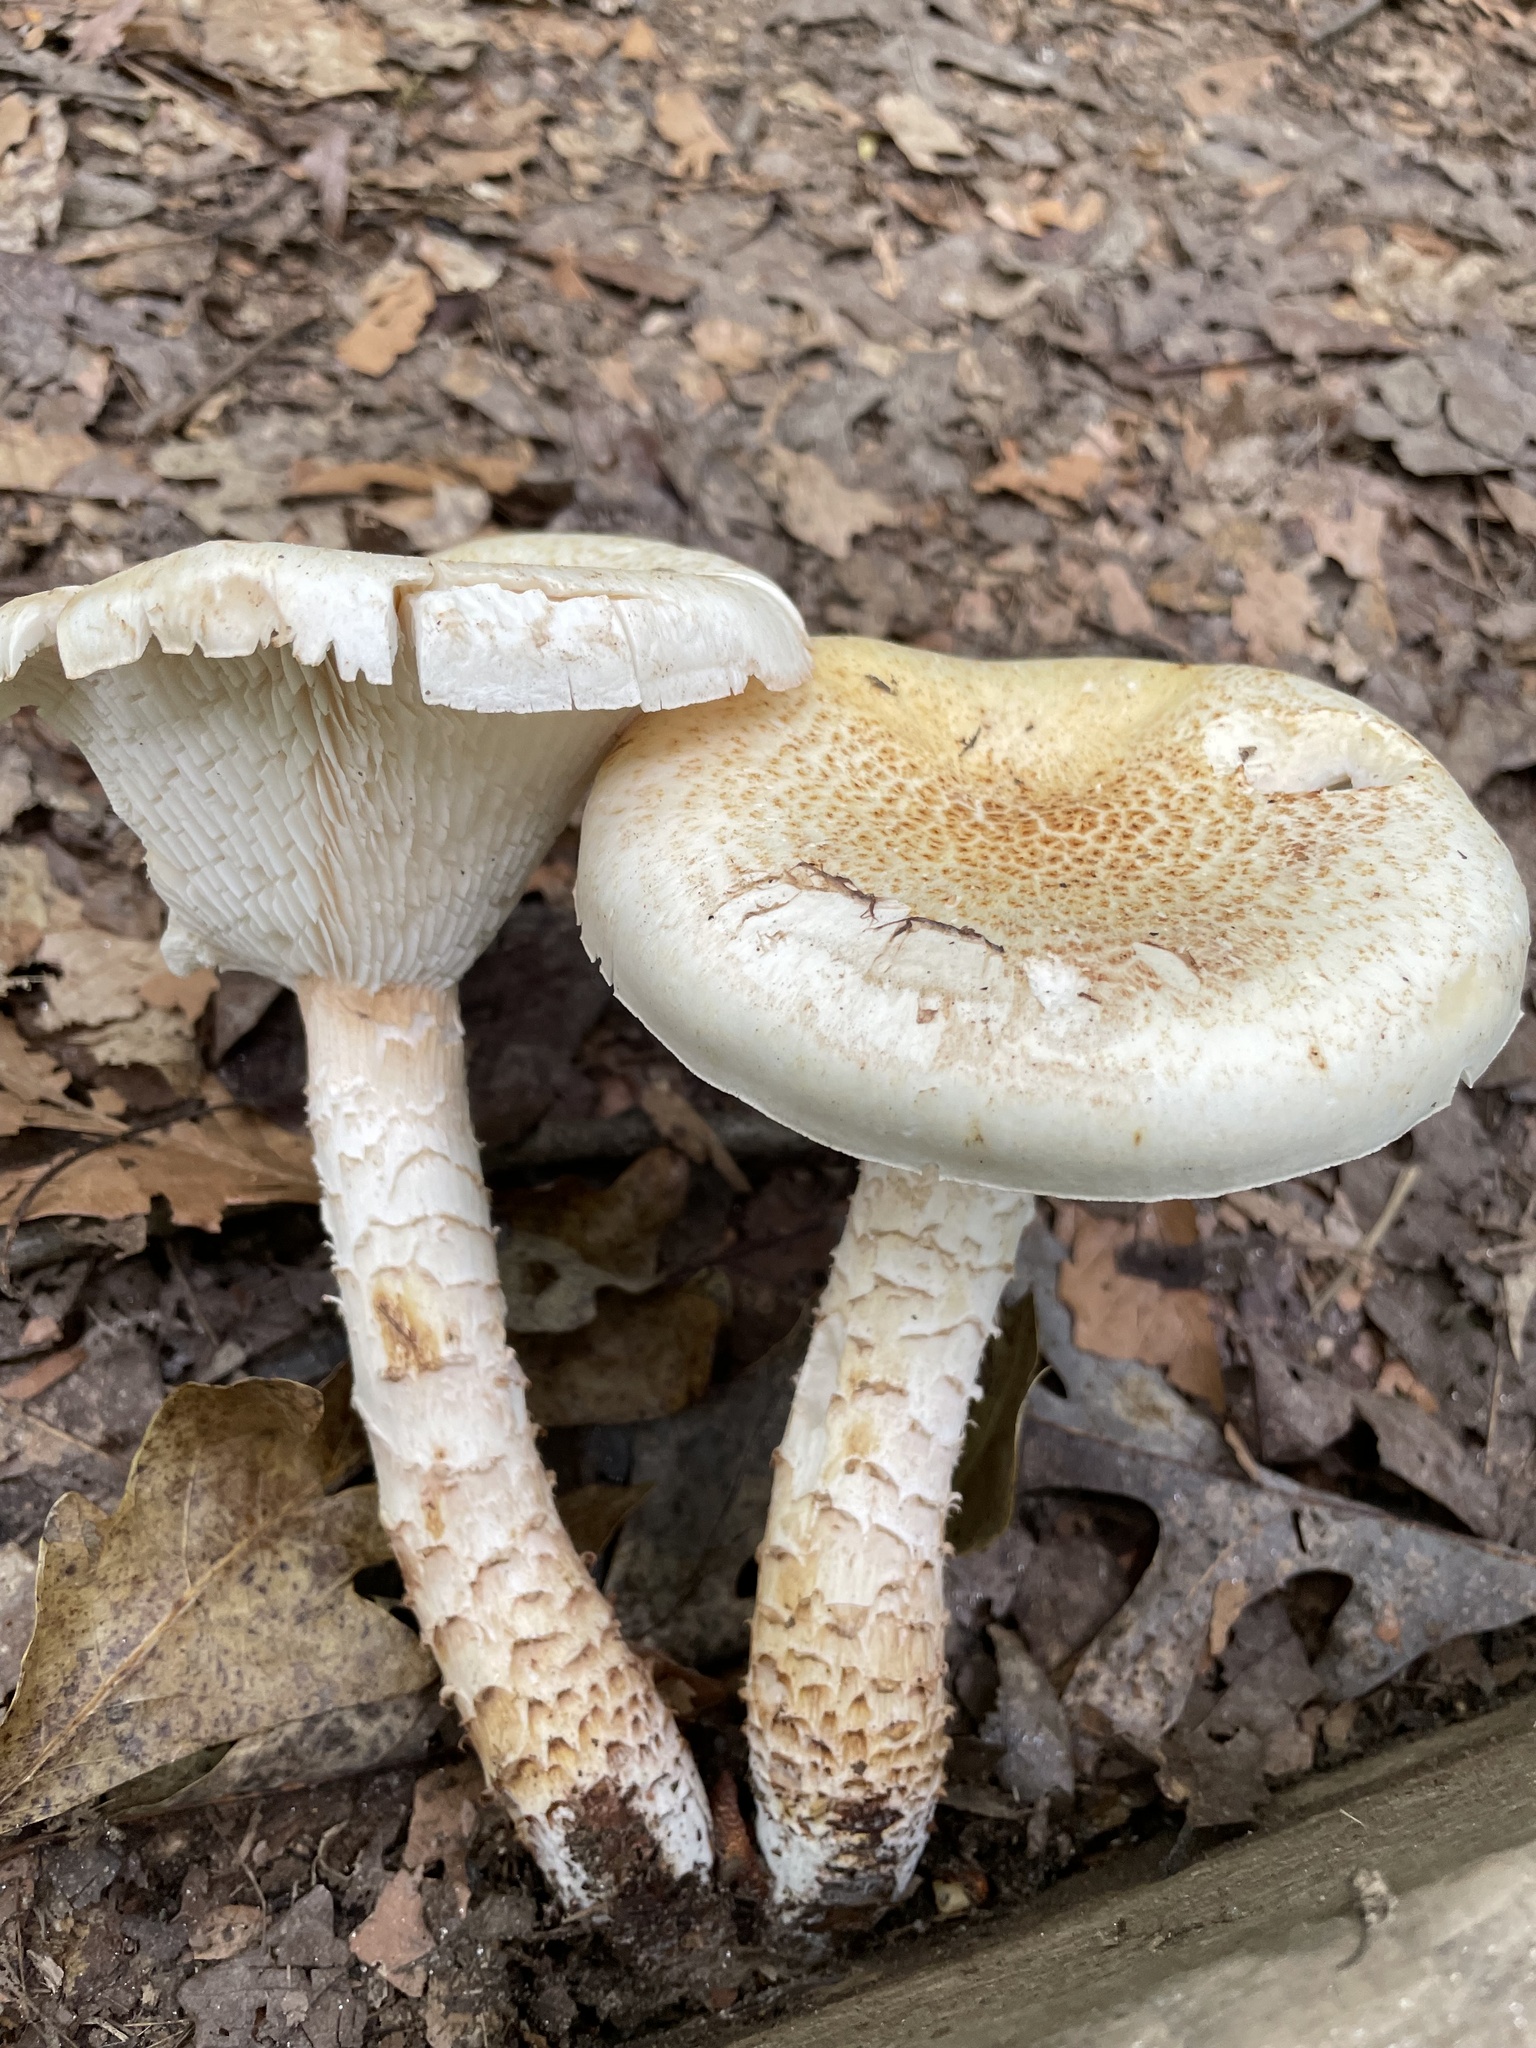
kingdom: Fungi
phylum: Basidiomycota
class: Agaricomycetes
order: Gloeophyllales
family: Gloeophyllaceae
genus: Neolentinus
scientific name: Neolentinus lepideus
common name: Scaly sawgill
